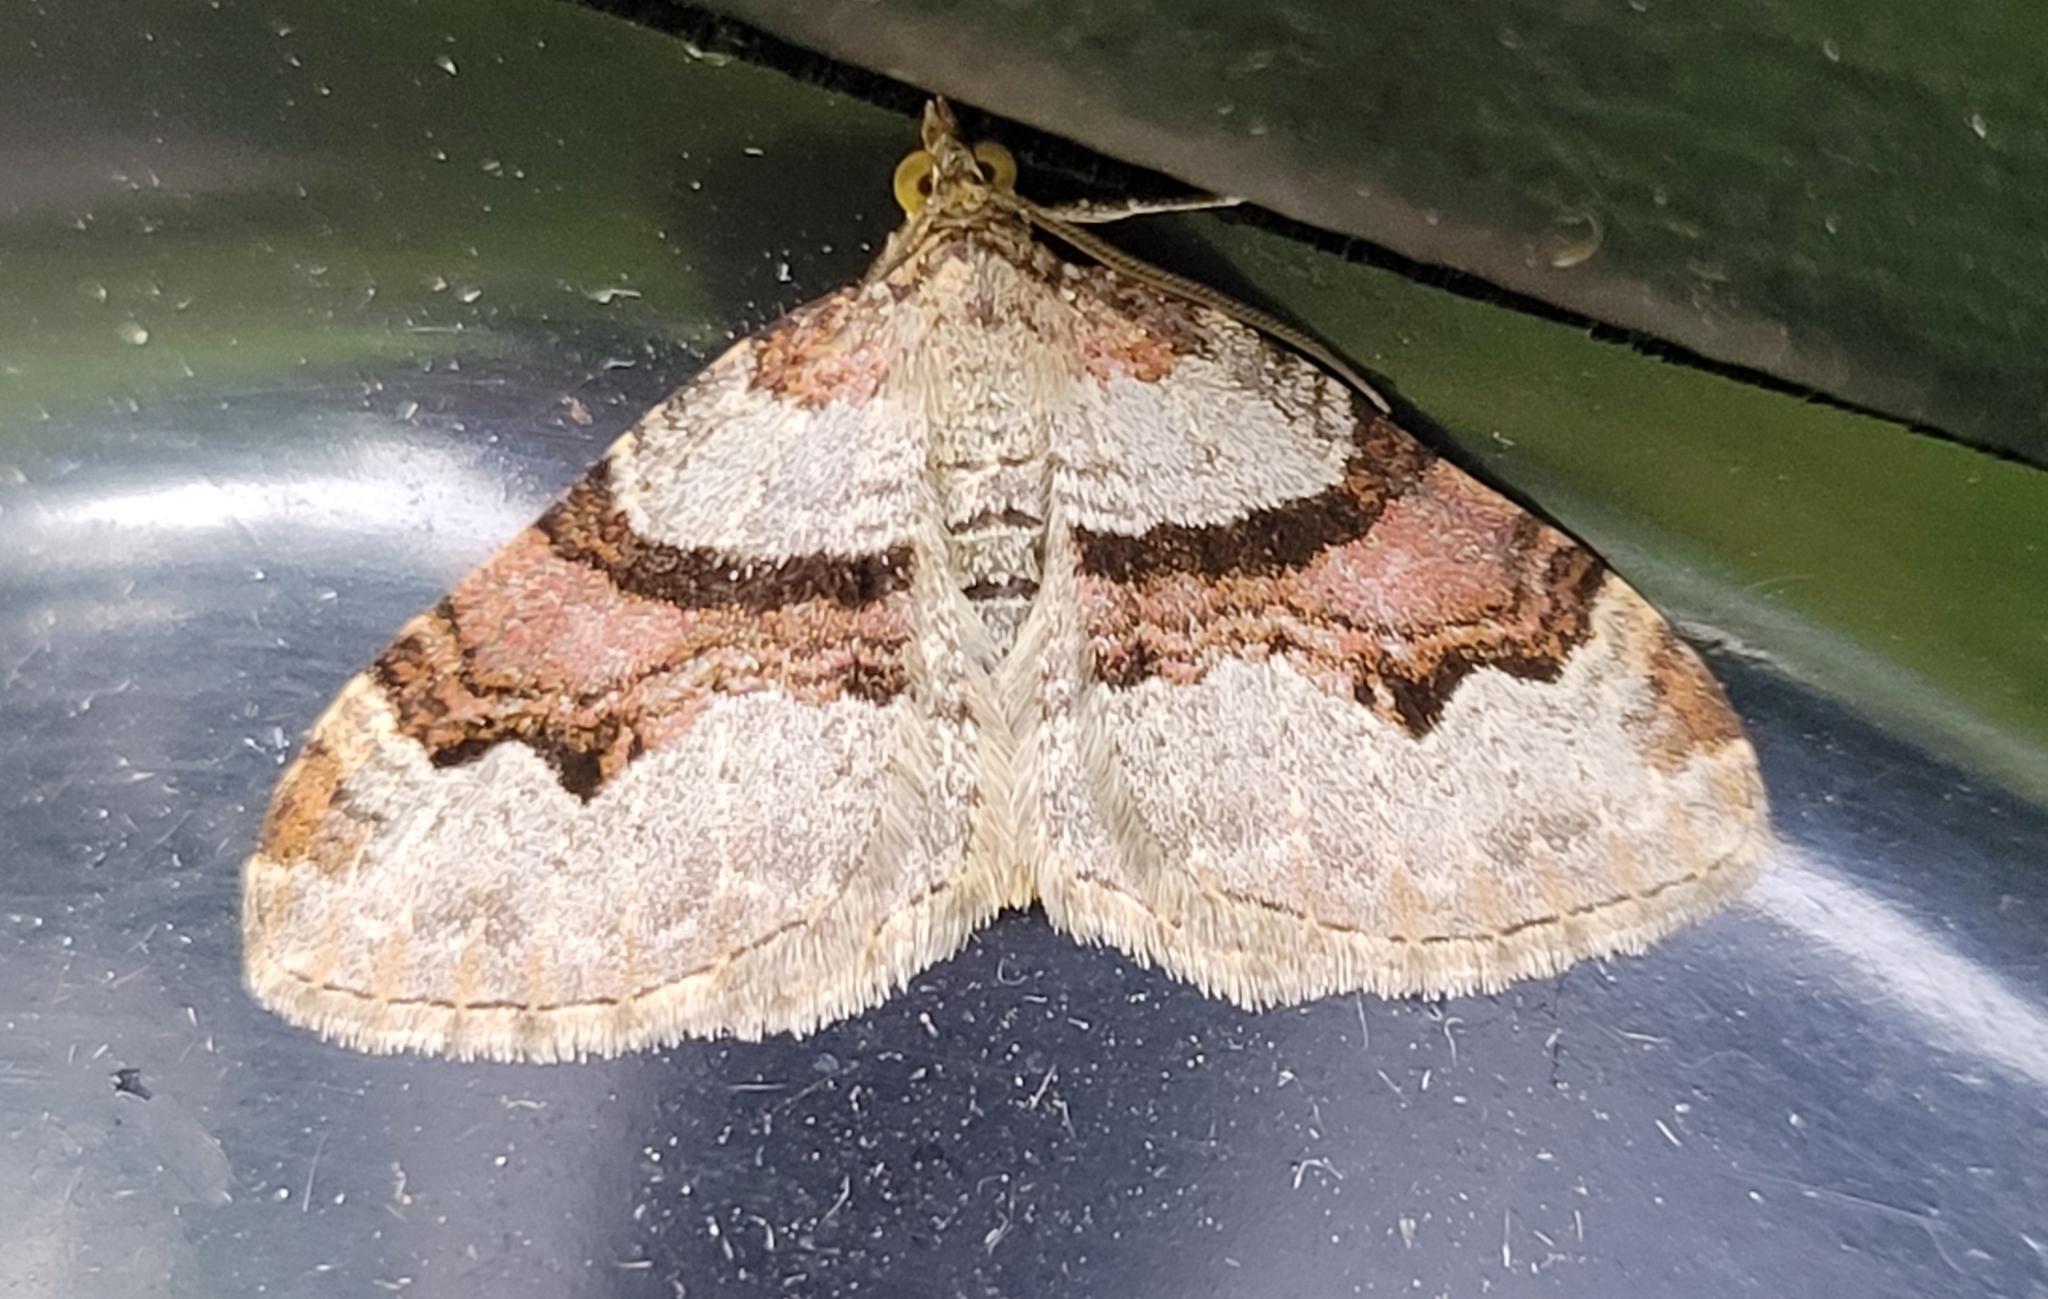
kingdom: Animalia
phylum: Arthropoda
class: Insecta
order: Lepidoptera
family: Geometridae
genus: Xanthorhoe
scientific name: Xanthorhoe designata
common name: Flame carpet
